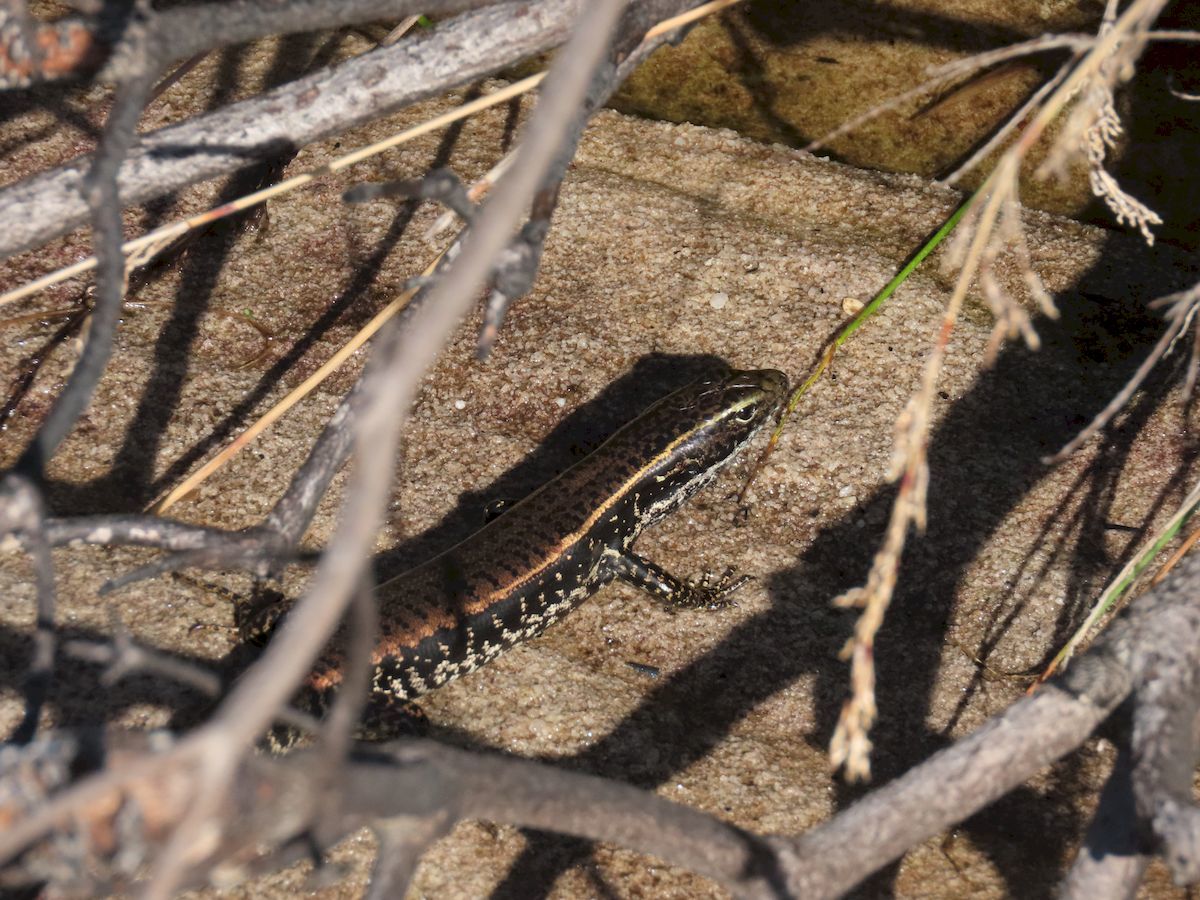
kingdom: Animalia
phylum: Chordata
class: Squamata
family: Scincidae
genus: Eulamprus
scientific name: Eulamprus quoyii
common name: Eastern water skink
